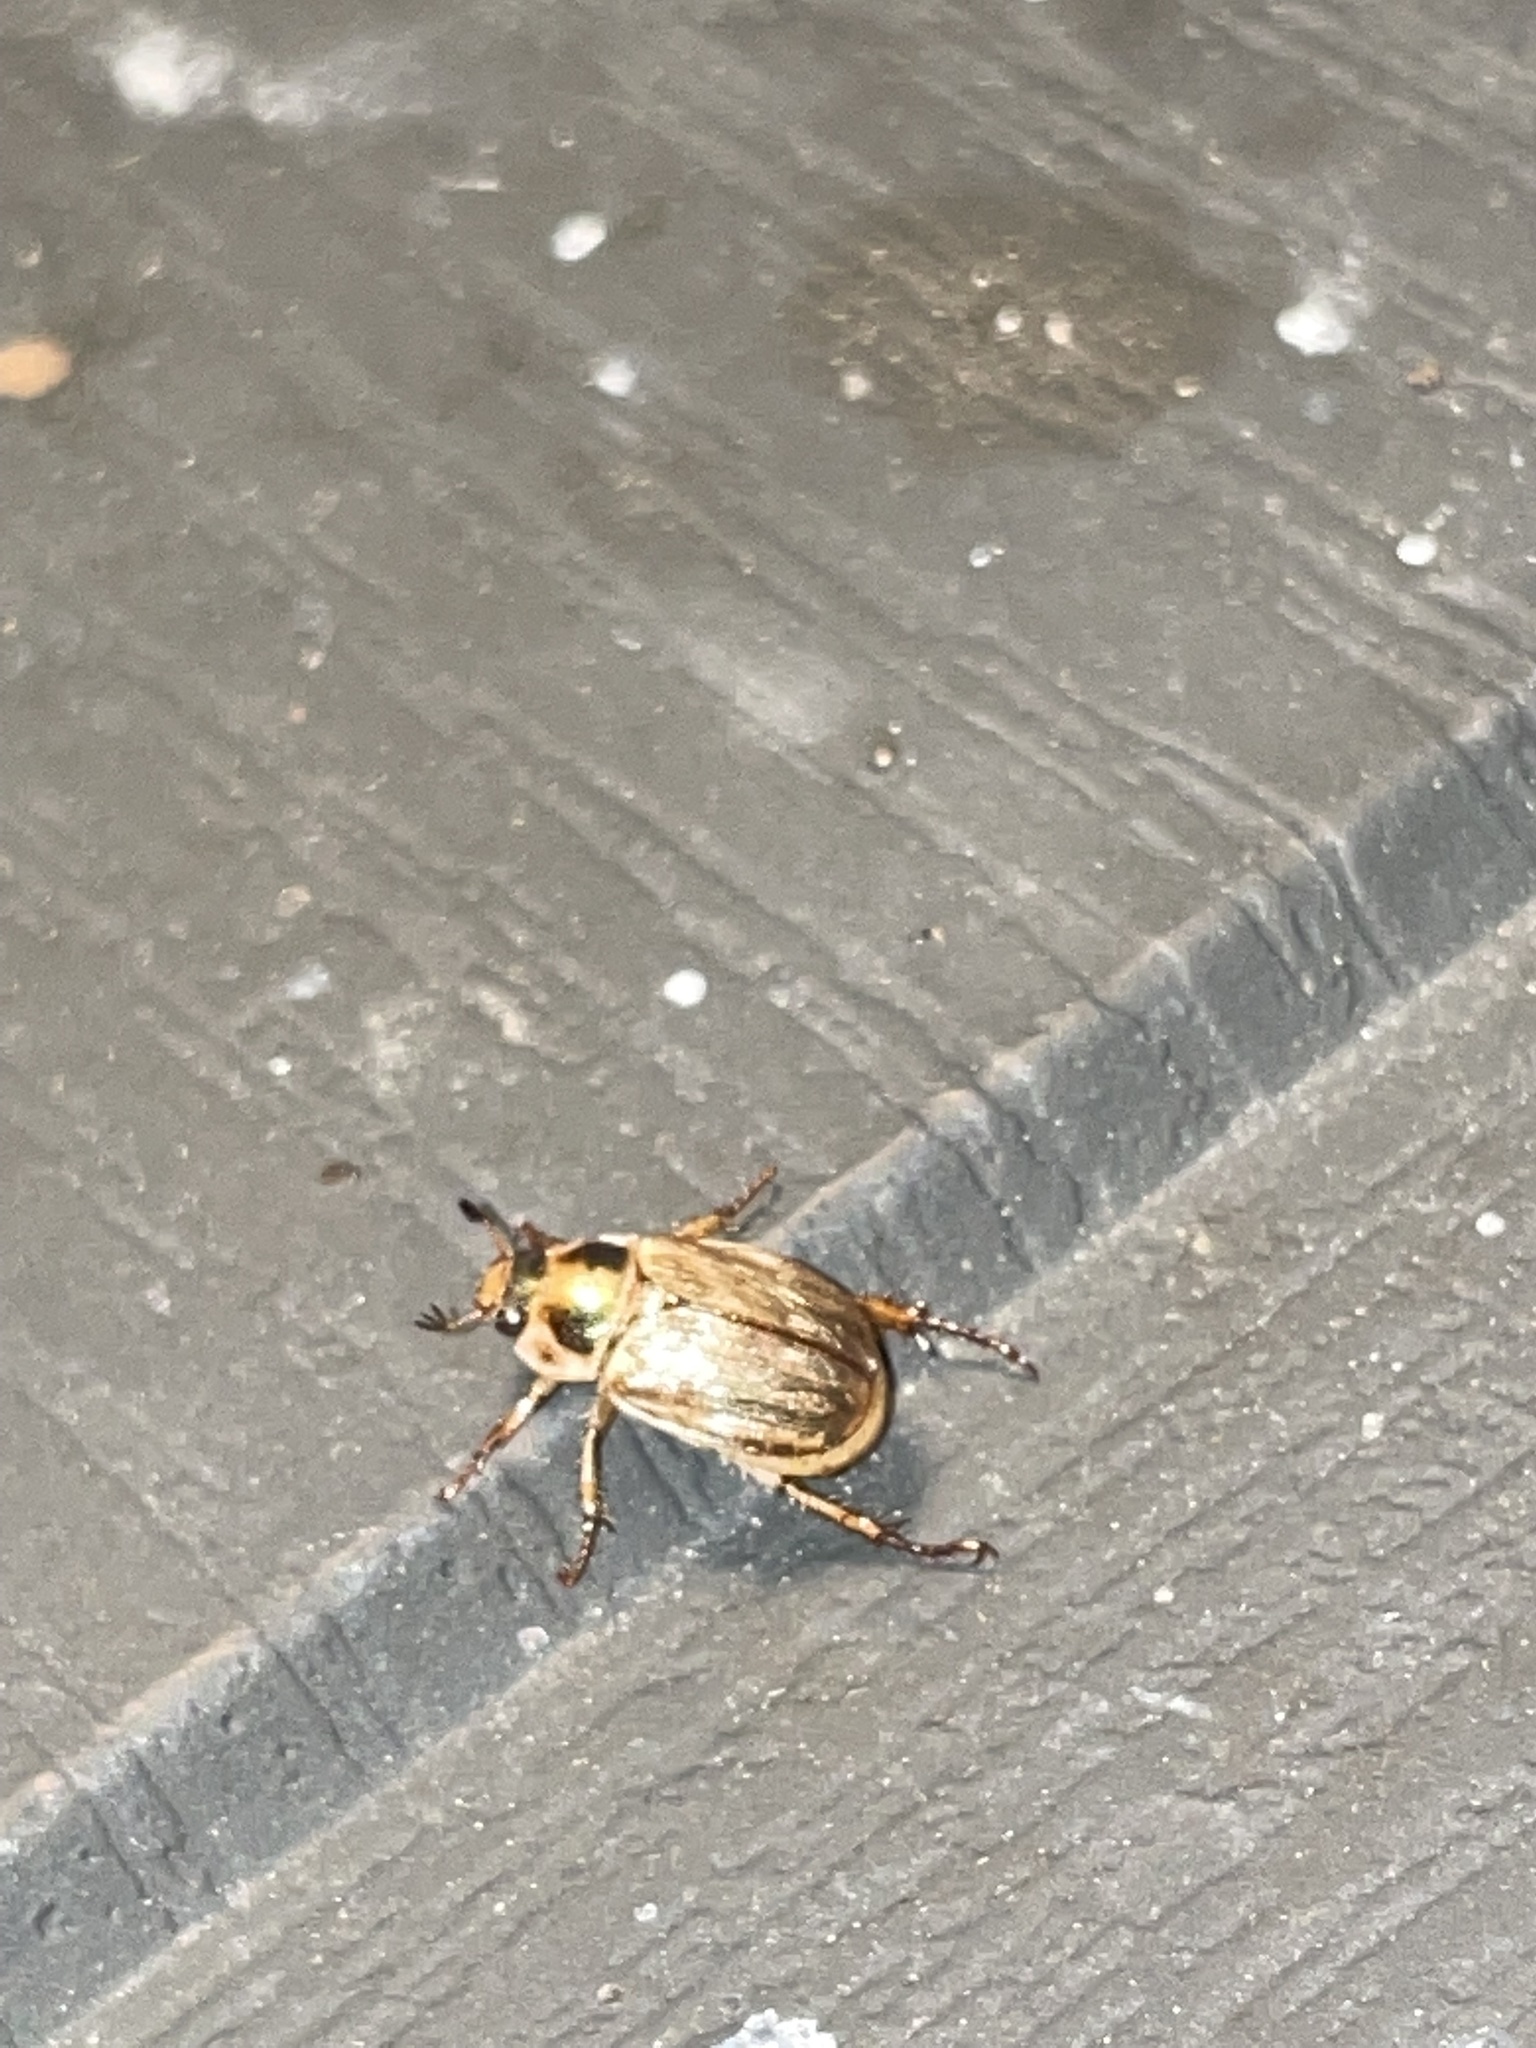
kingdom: Animalia
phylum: Arthropoda
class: Insecta
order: Coleoptera
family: Scarabaeidae
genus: Exomala
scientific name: Exomala orientalis
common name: Oriental beetle
